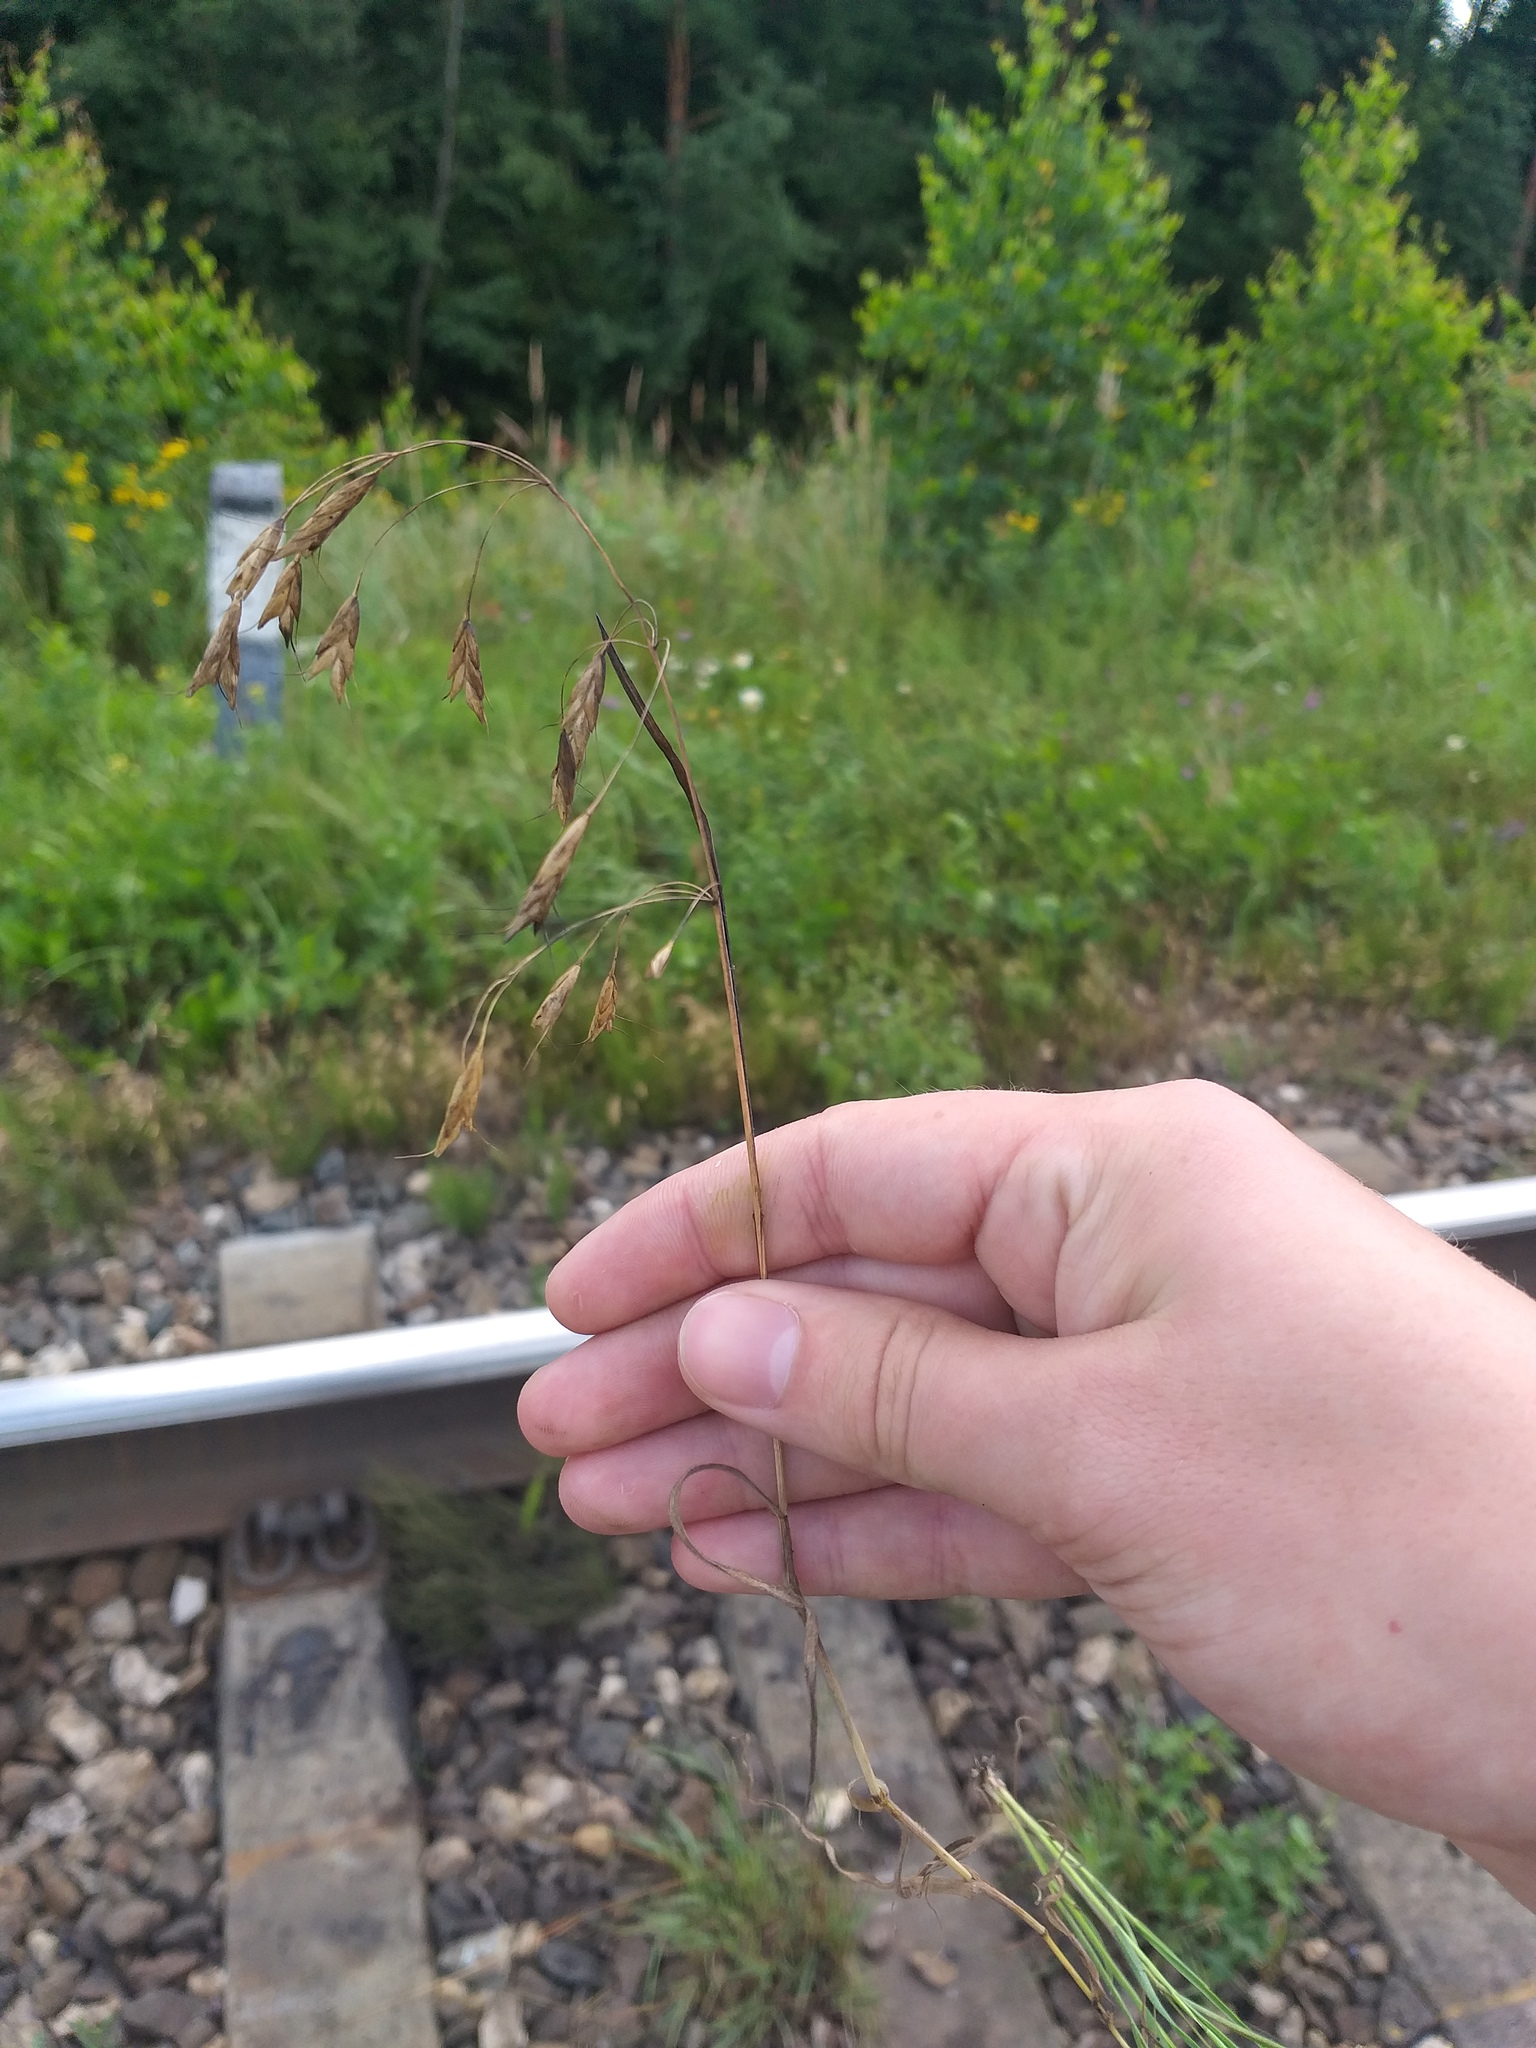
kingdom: Plantae
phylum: Tracheophyta
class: Liliopsida
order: Poales
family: Poaceae
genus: Bromus
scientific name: Bromus japonicus
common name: Japanese brome
